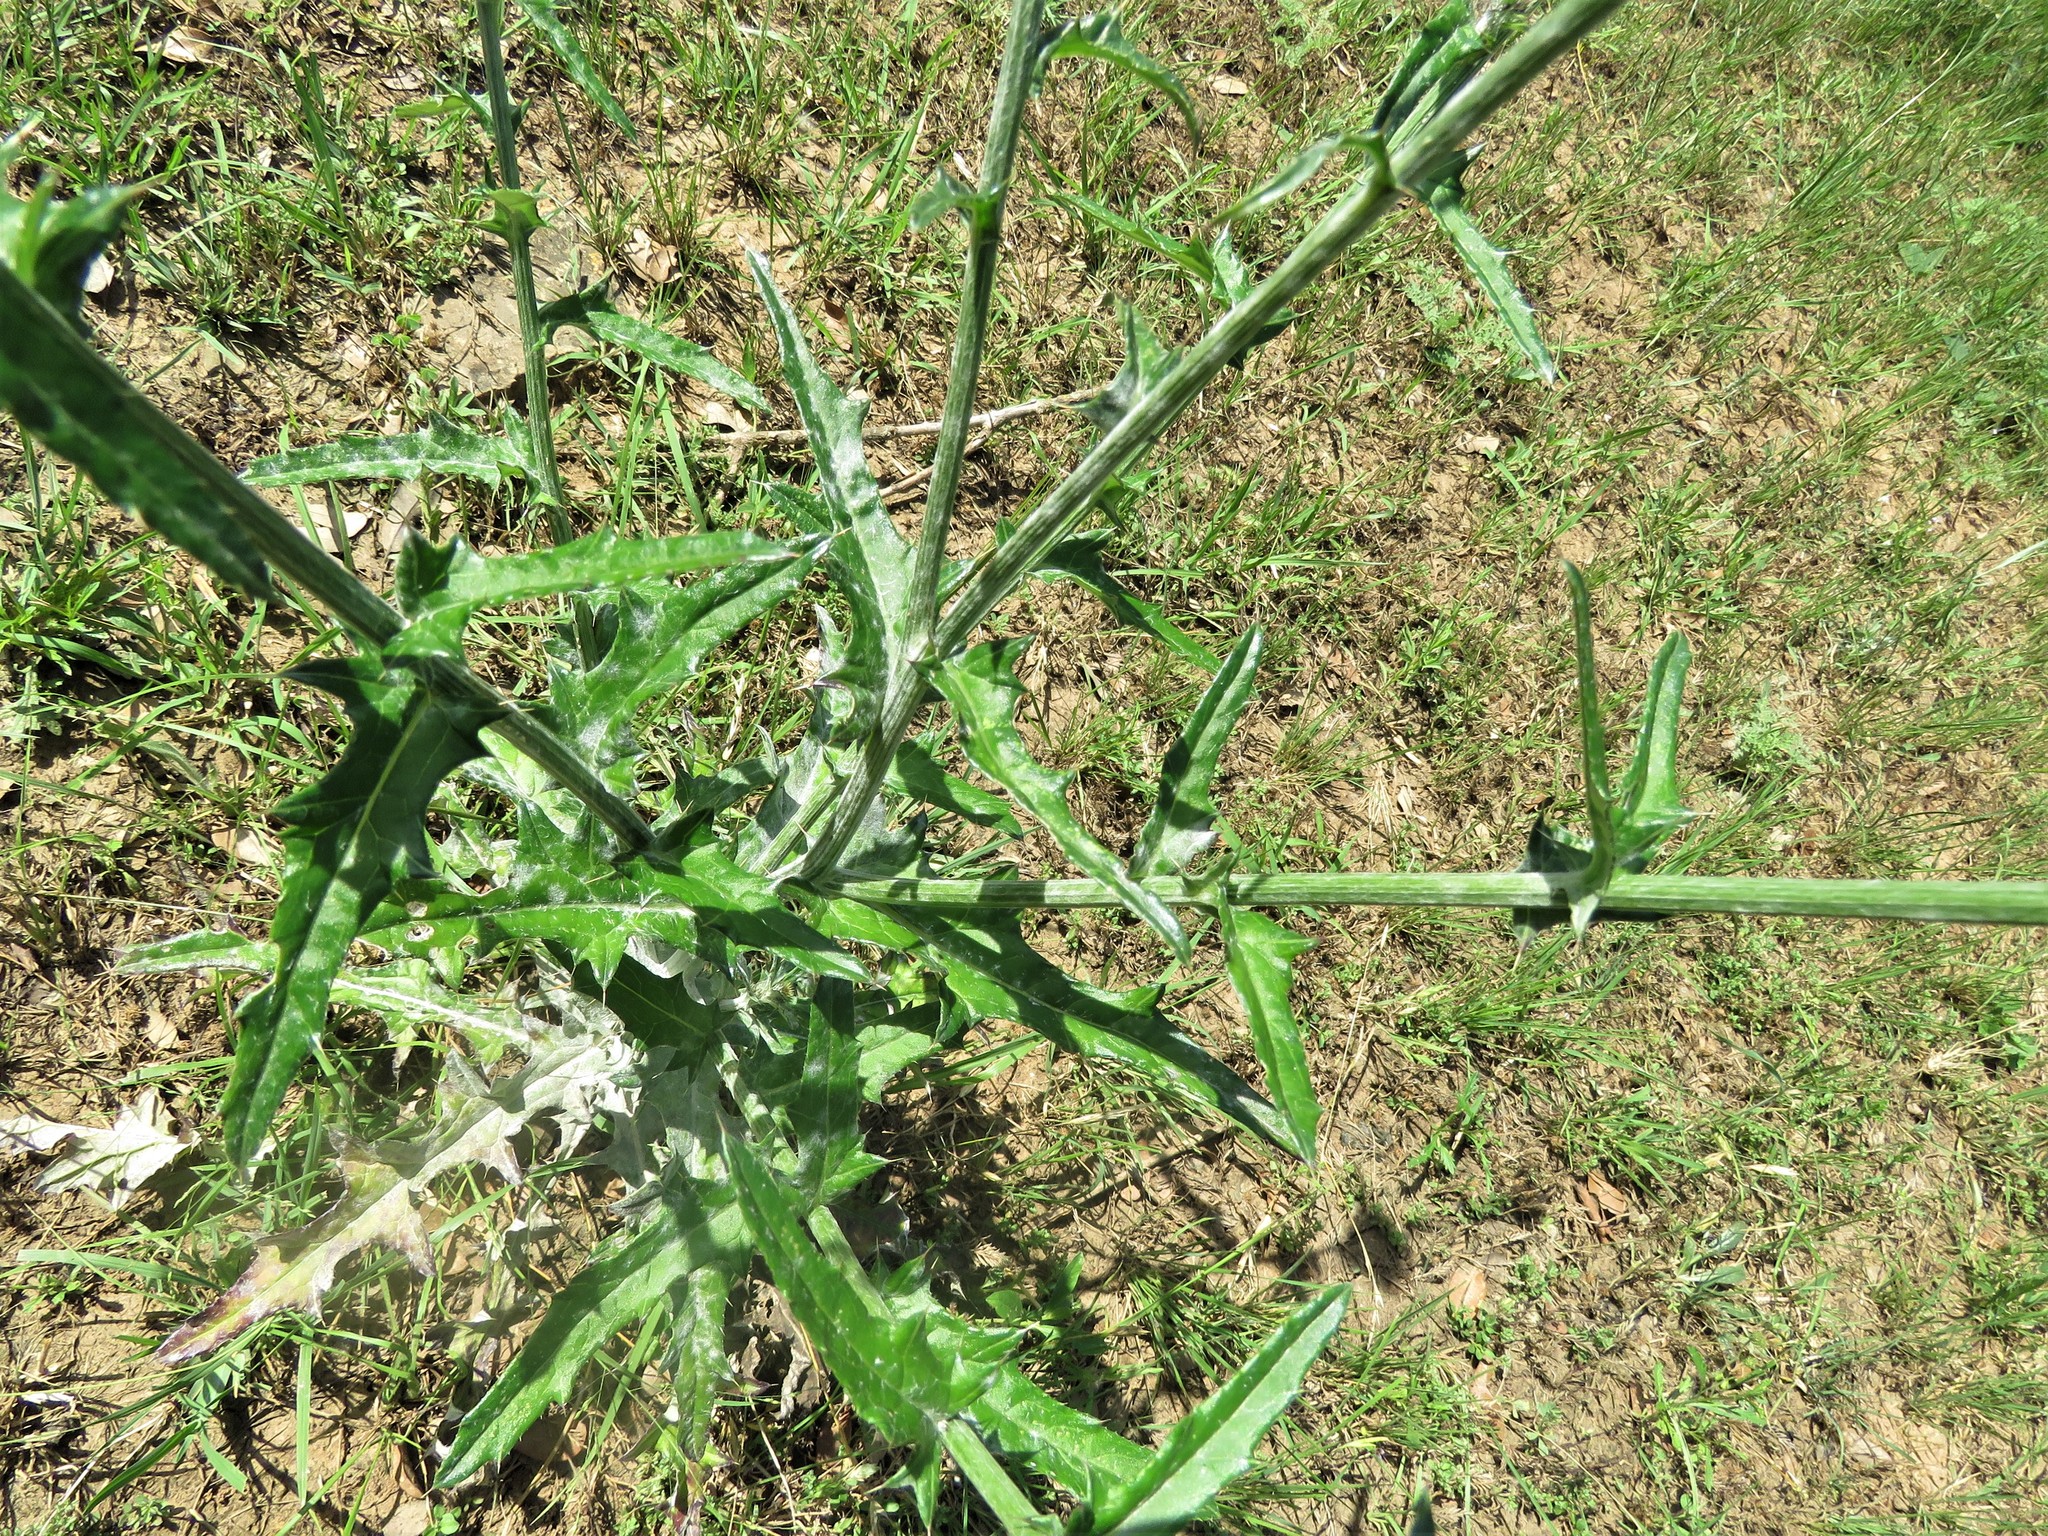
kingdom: Plantae
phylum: Tracheophyta
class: Magnoliopsida
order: Asterales
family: Asteraceae
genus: Cirsium
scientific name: Cirsium texanum
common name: Texas purple thistle
